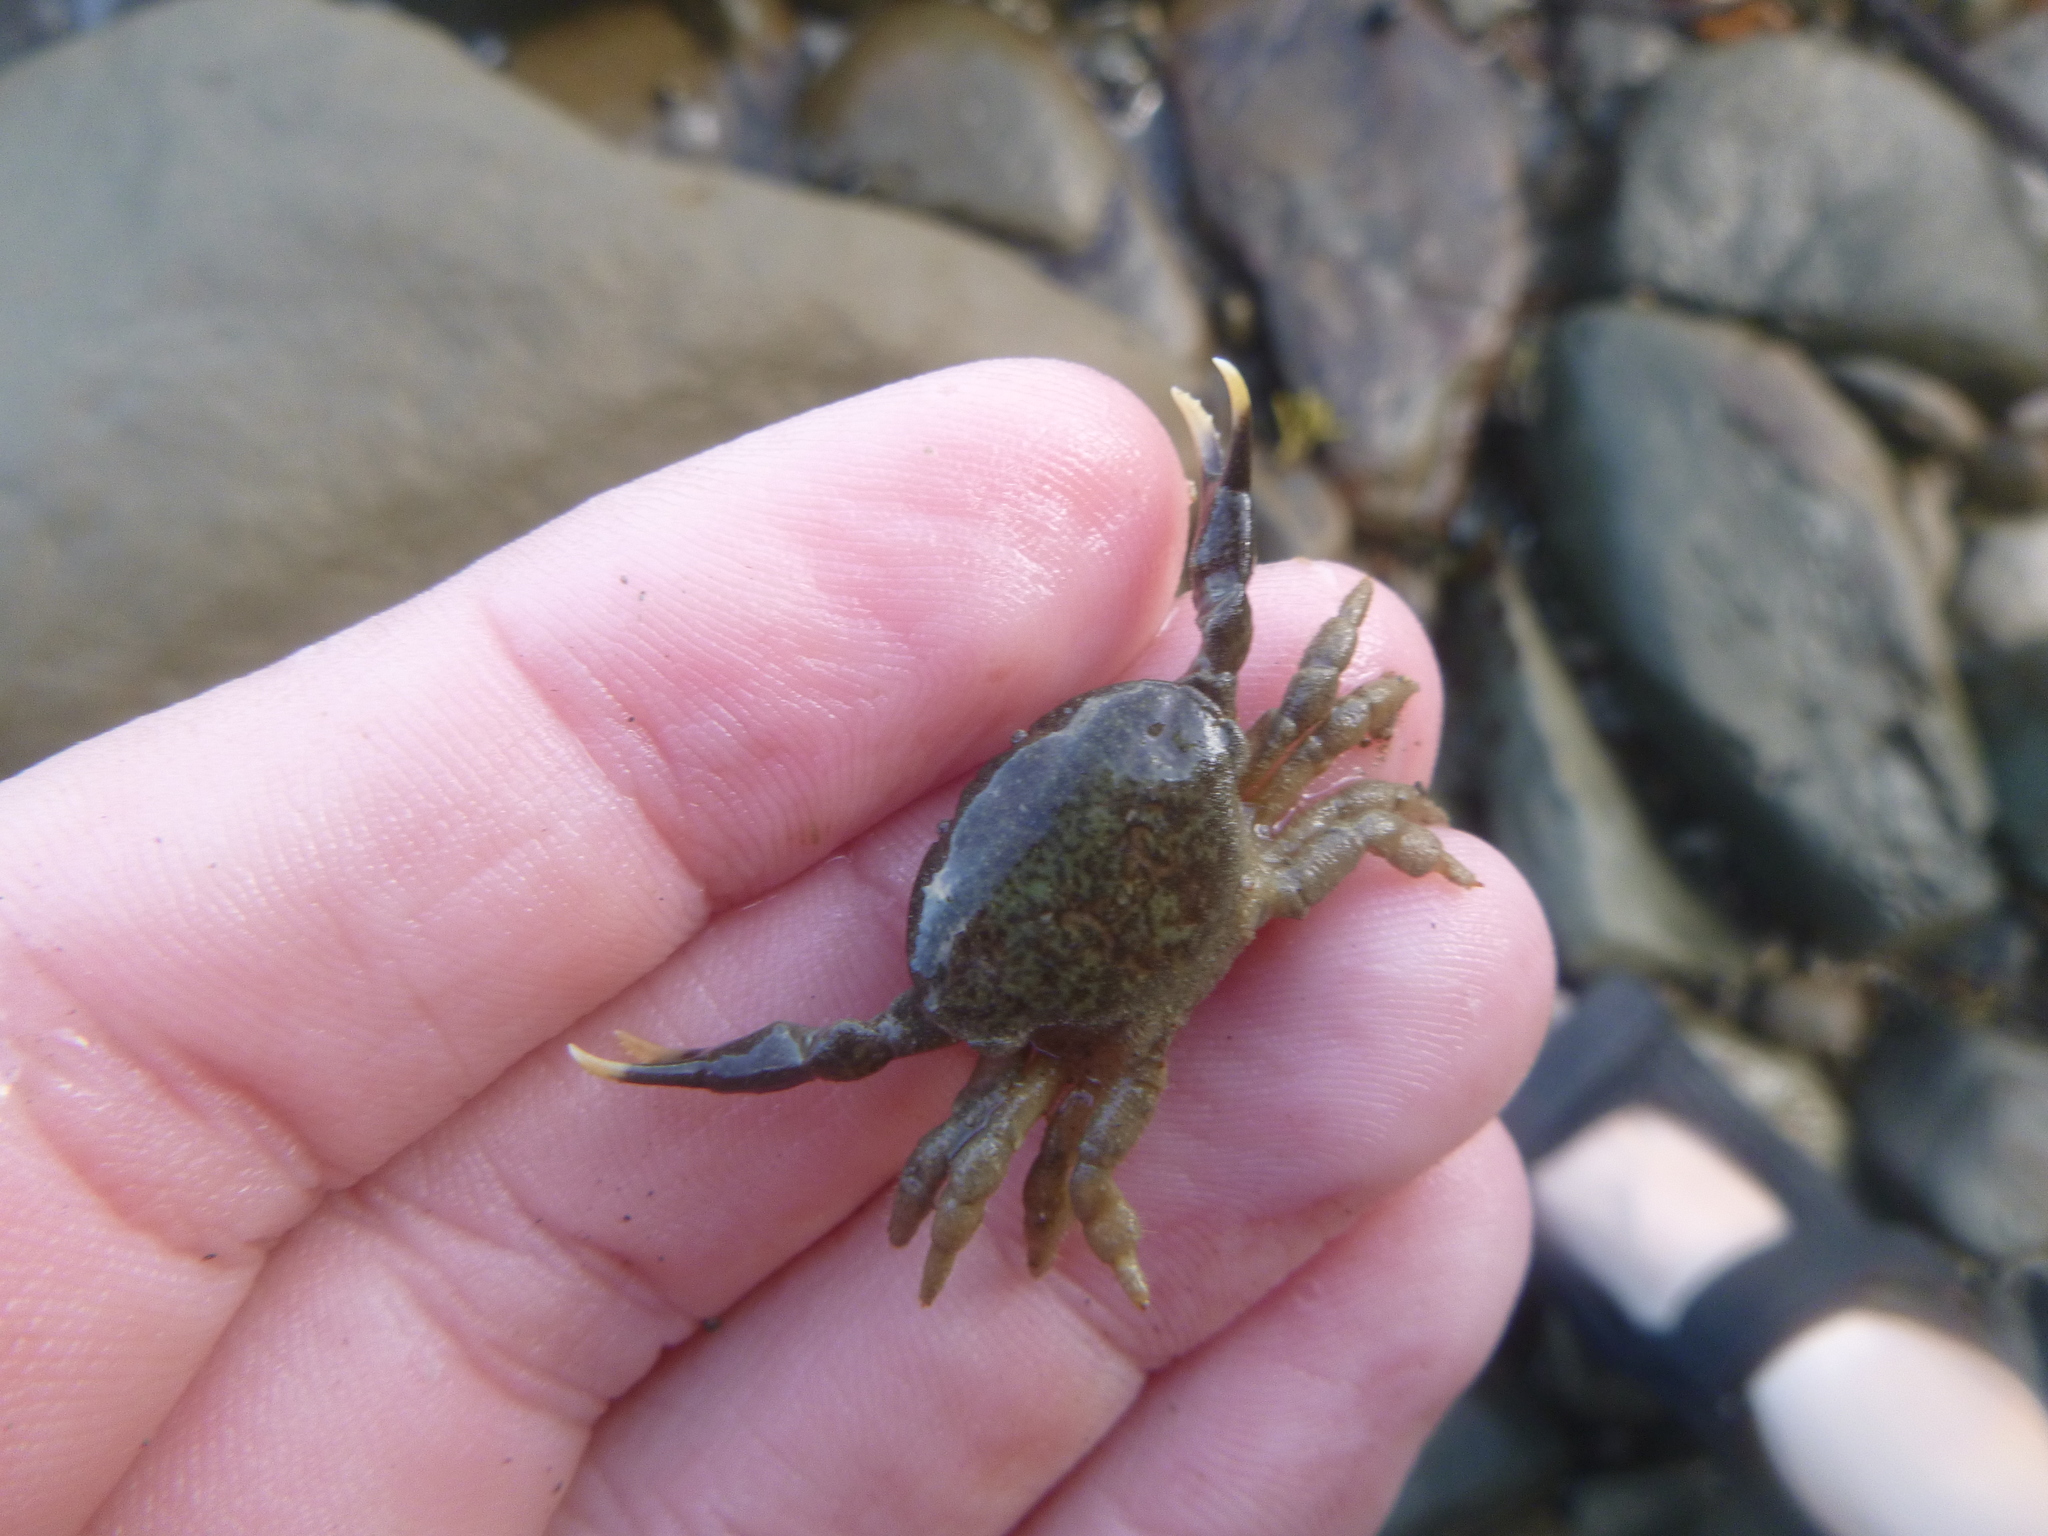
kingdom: Animalia
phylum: Arthropoda
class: Malacostraca
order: Decapoda
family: Heteroziidae
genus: Heterozius
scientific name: Heterozius rotundifrons
